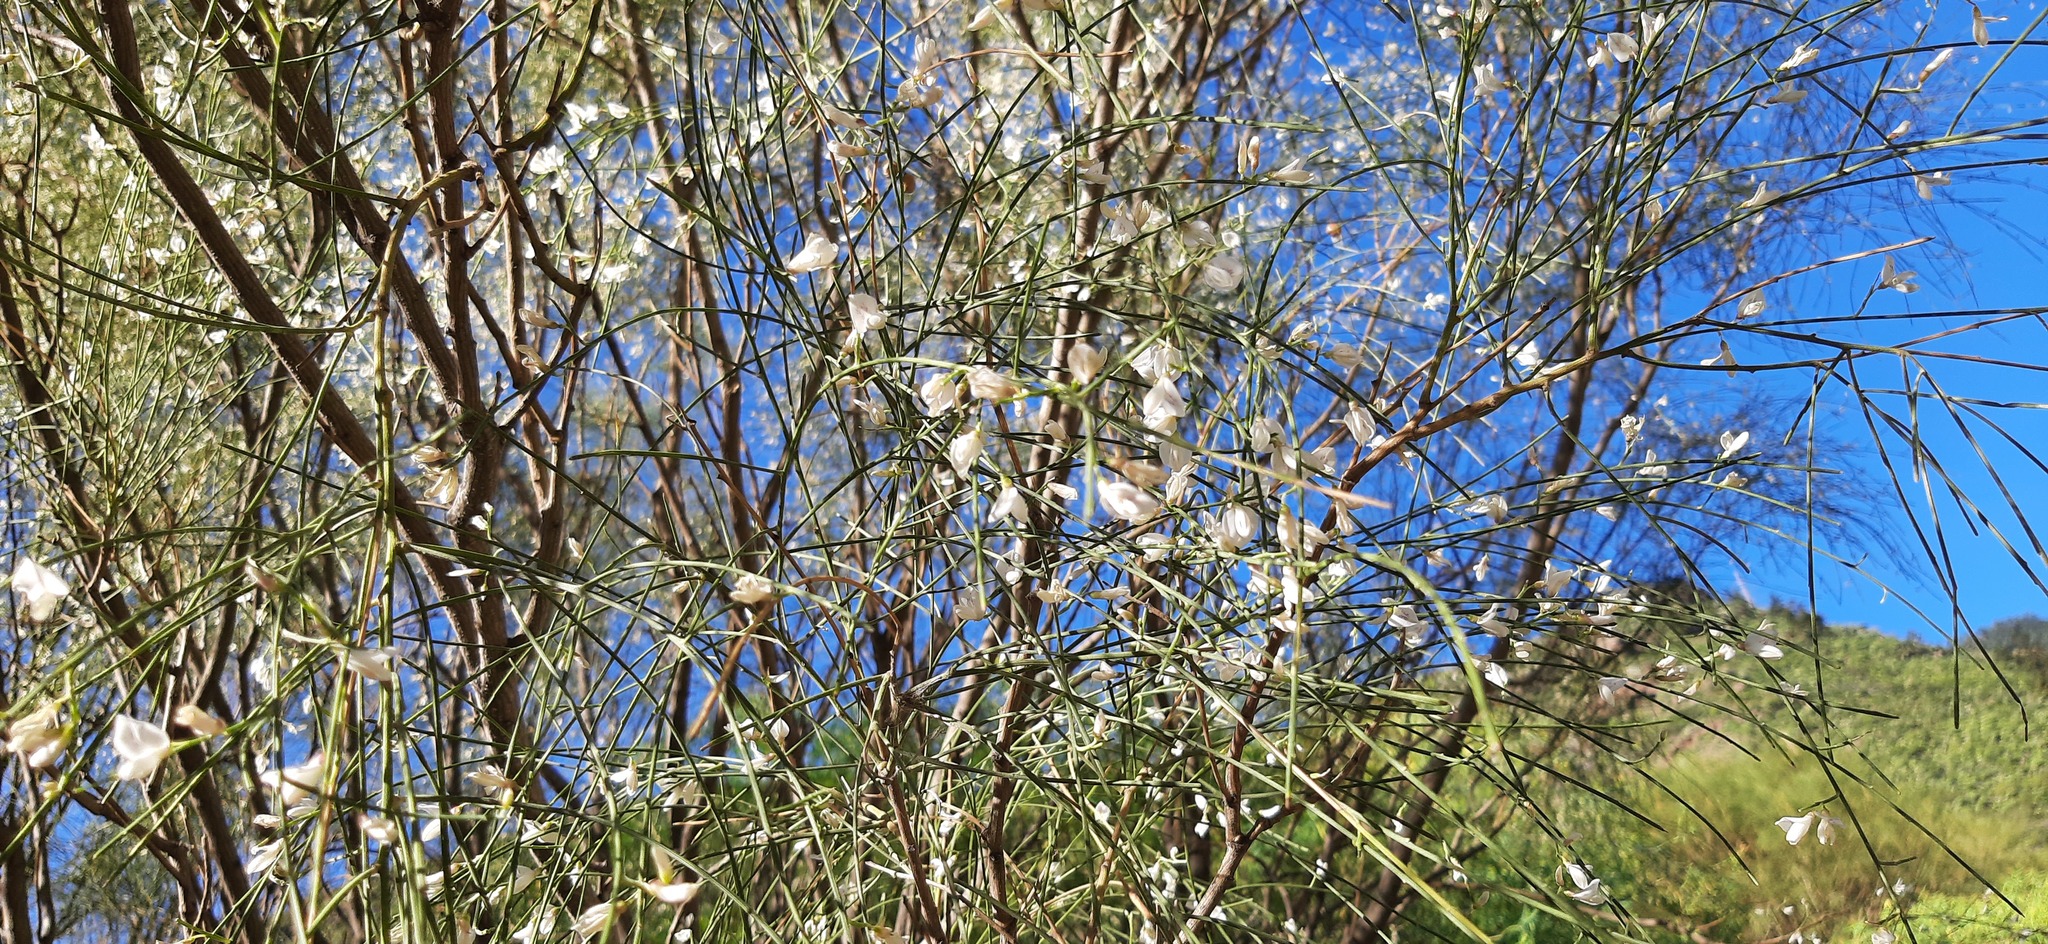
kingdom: Plantae
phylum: Tracheophyta
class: Magnoliopsida
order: Fabales
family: Fabaceae
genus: Retama
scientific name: Retama rhodorhizoides
